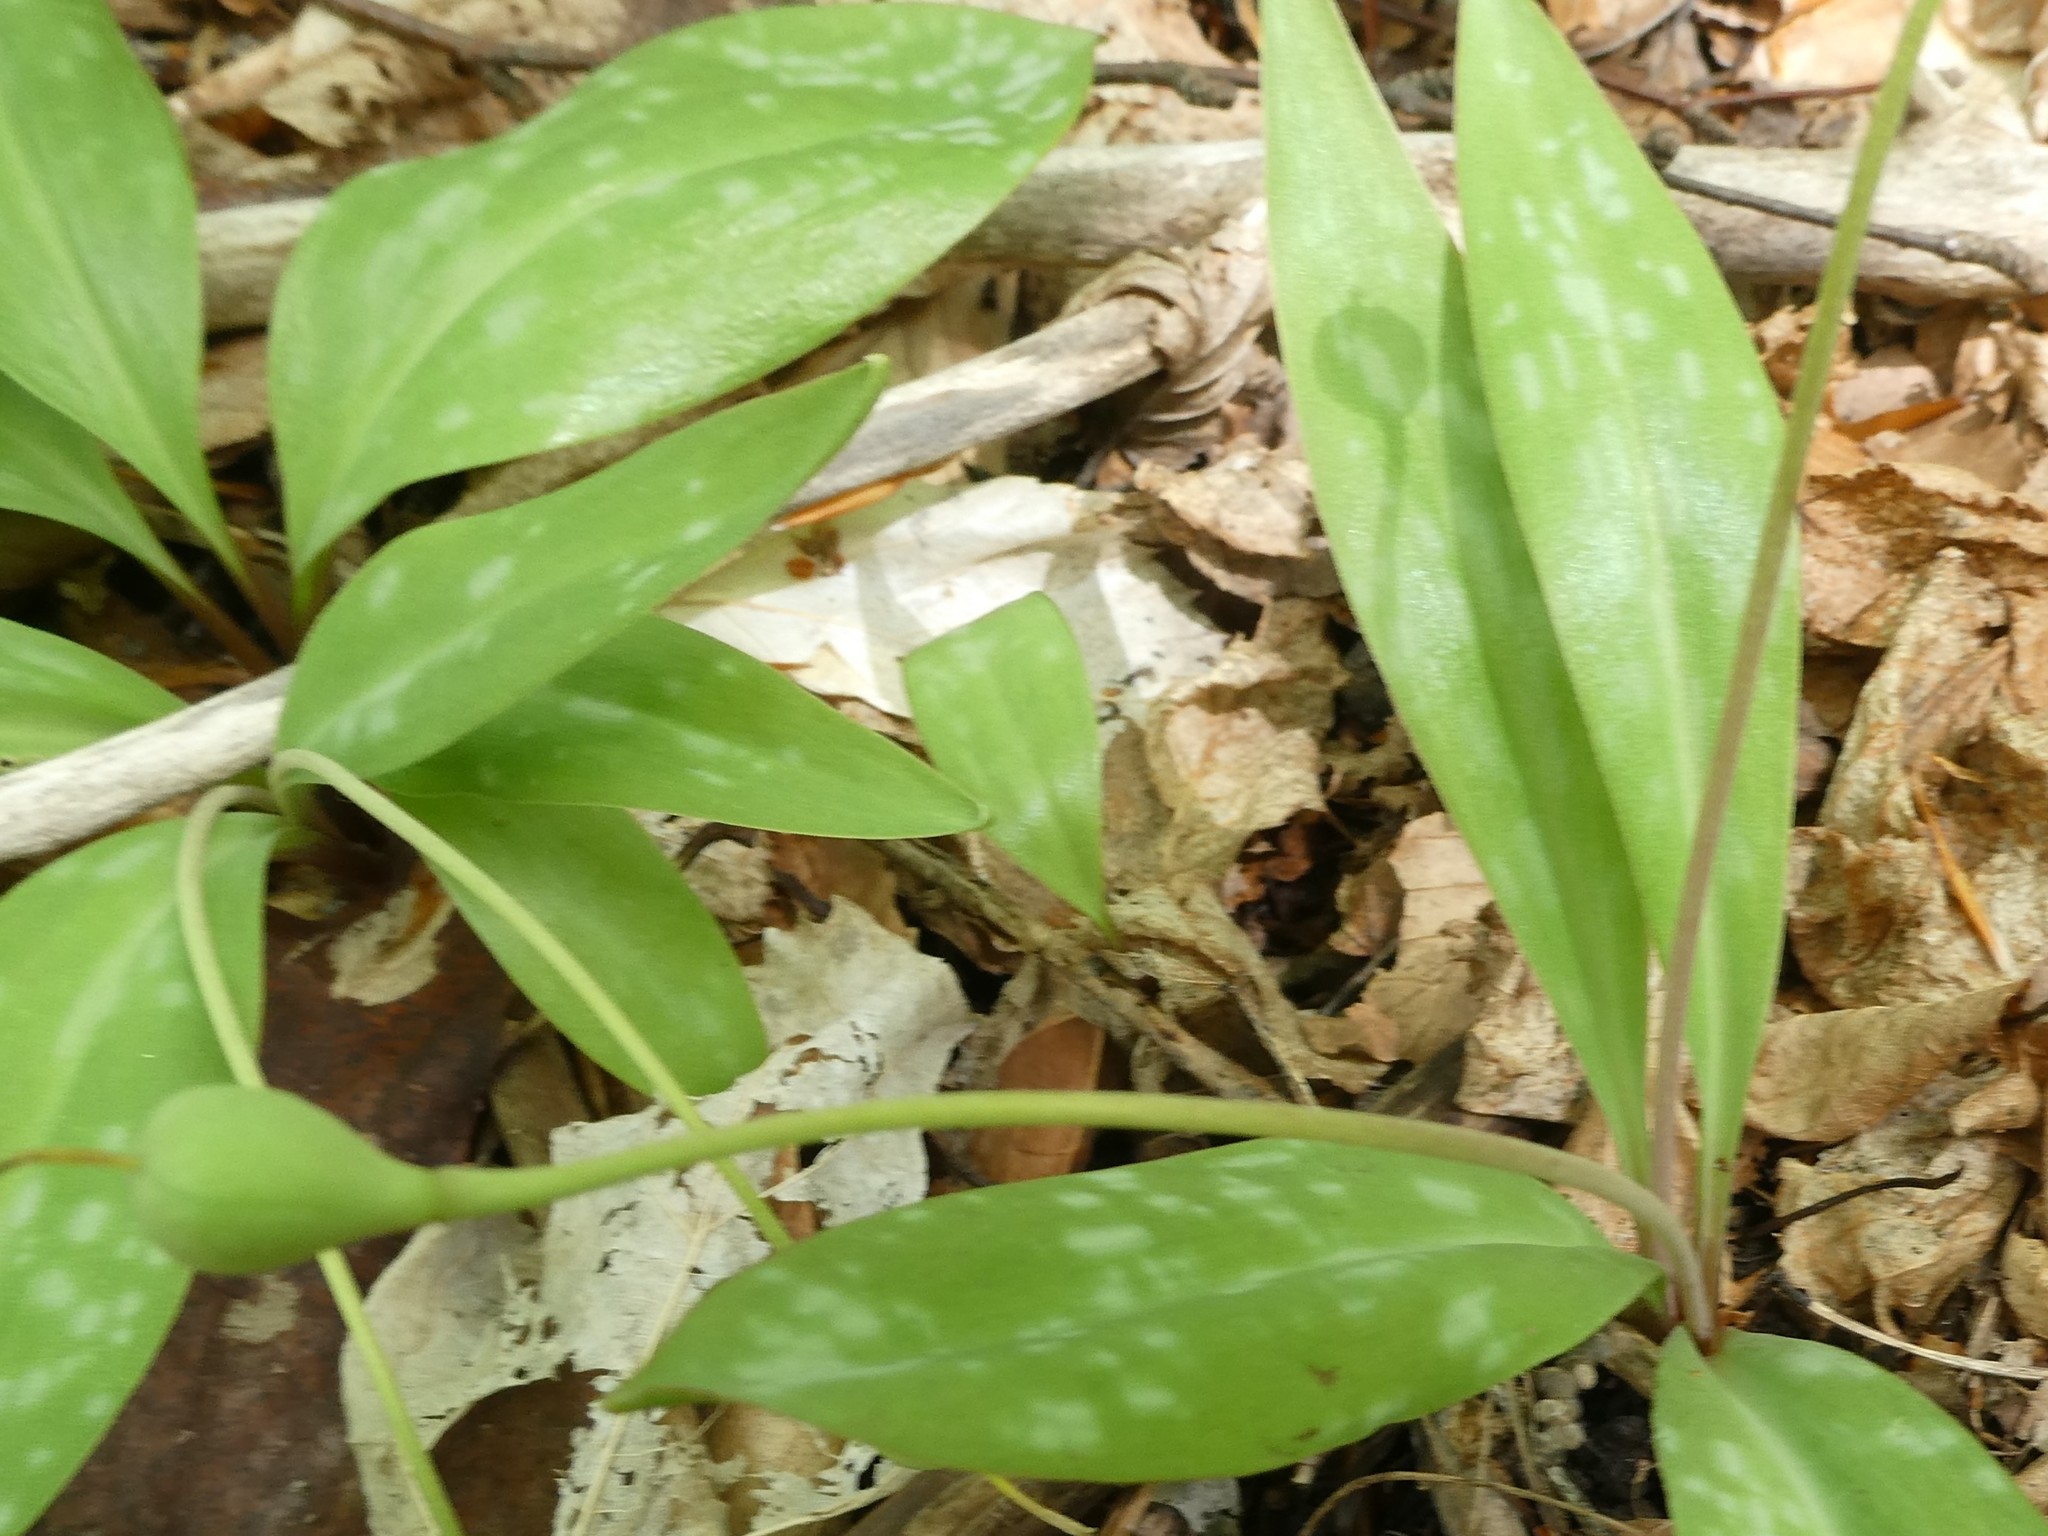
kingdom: Plantae
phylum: Tracheophyta
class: Liliopsida
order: Liliales
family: Liliaceae
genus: Erythronium
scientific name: Erythronium americanum
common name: Yellow adder's-tongue
